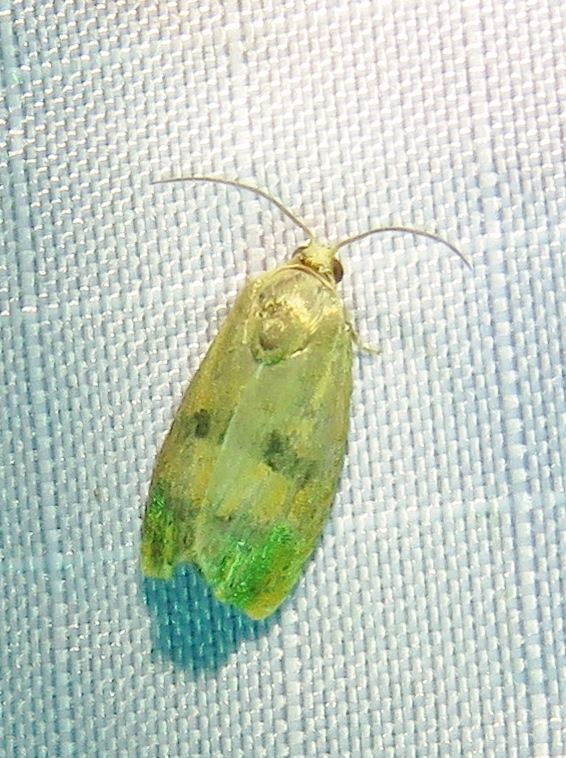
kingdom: Animalia
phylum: Arthropoda
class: Insecta
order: Lepidoptera
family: Tortricidae
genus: Cydia
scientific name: Cydia latiferreana
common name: Filbertworm moth
